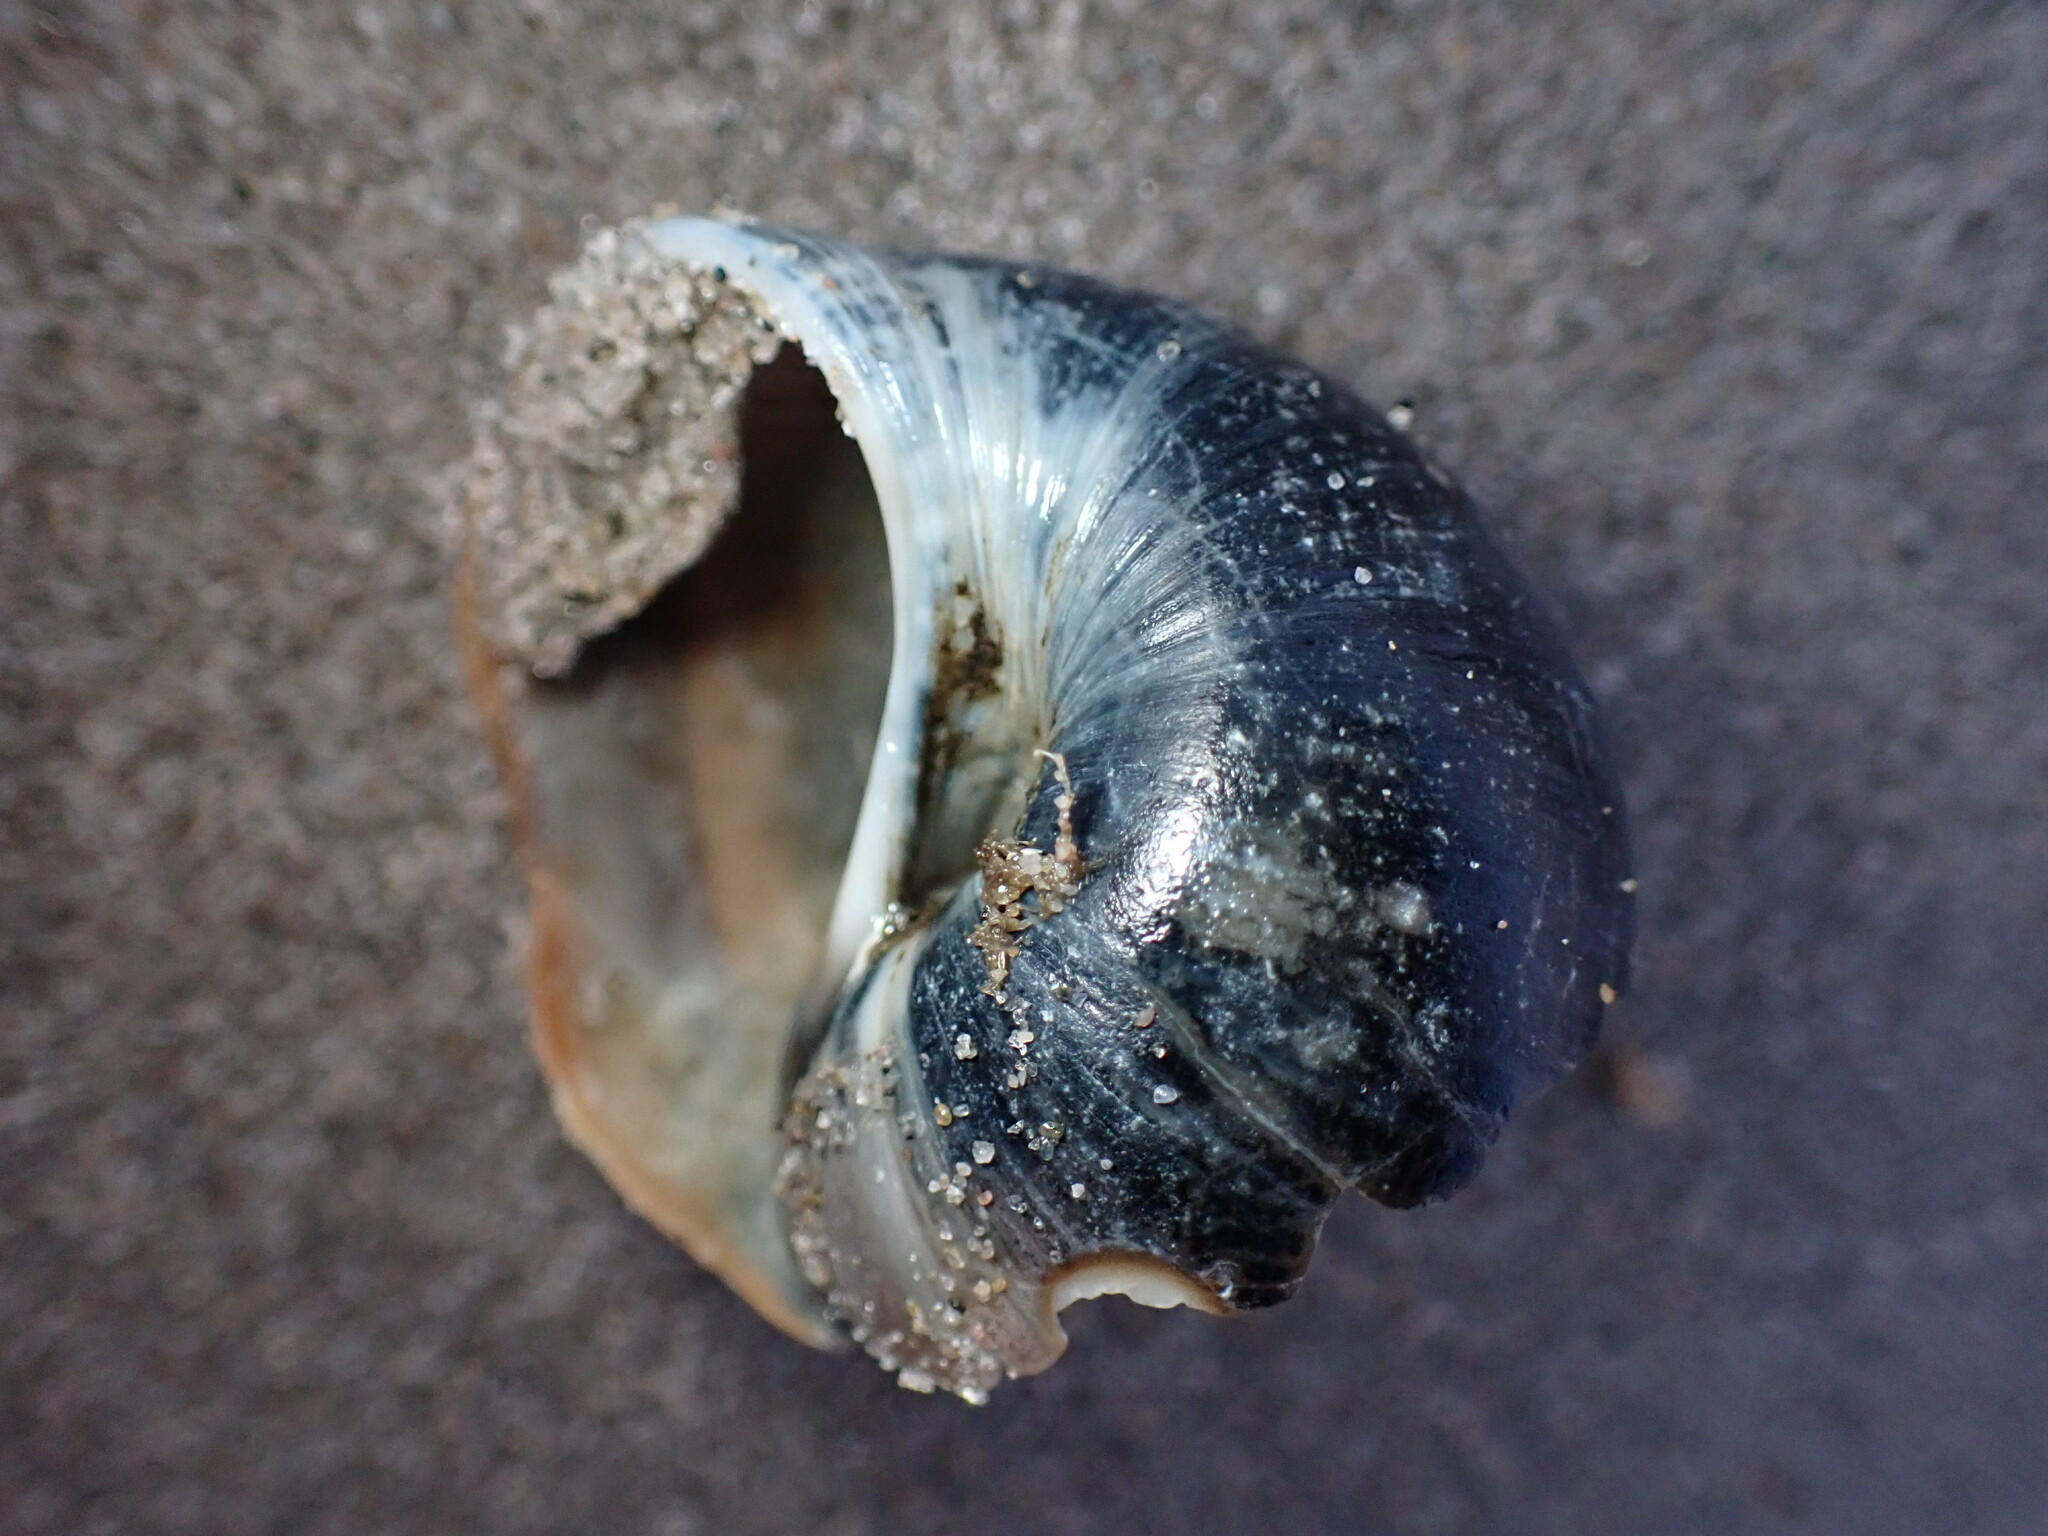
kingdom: Animalia
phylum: Mollusca
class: Gastropoda
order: Littorinimorpha
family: Naticidae
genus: Euspira
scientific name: Euspira heros
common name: Common northern moonsnail
